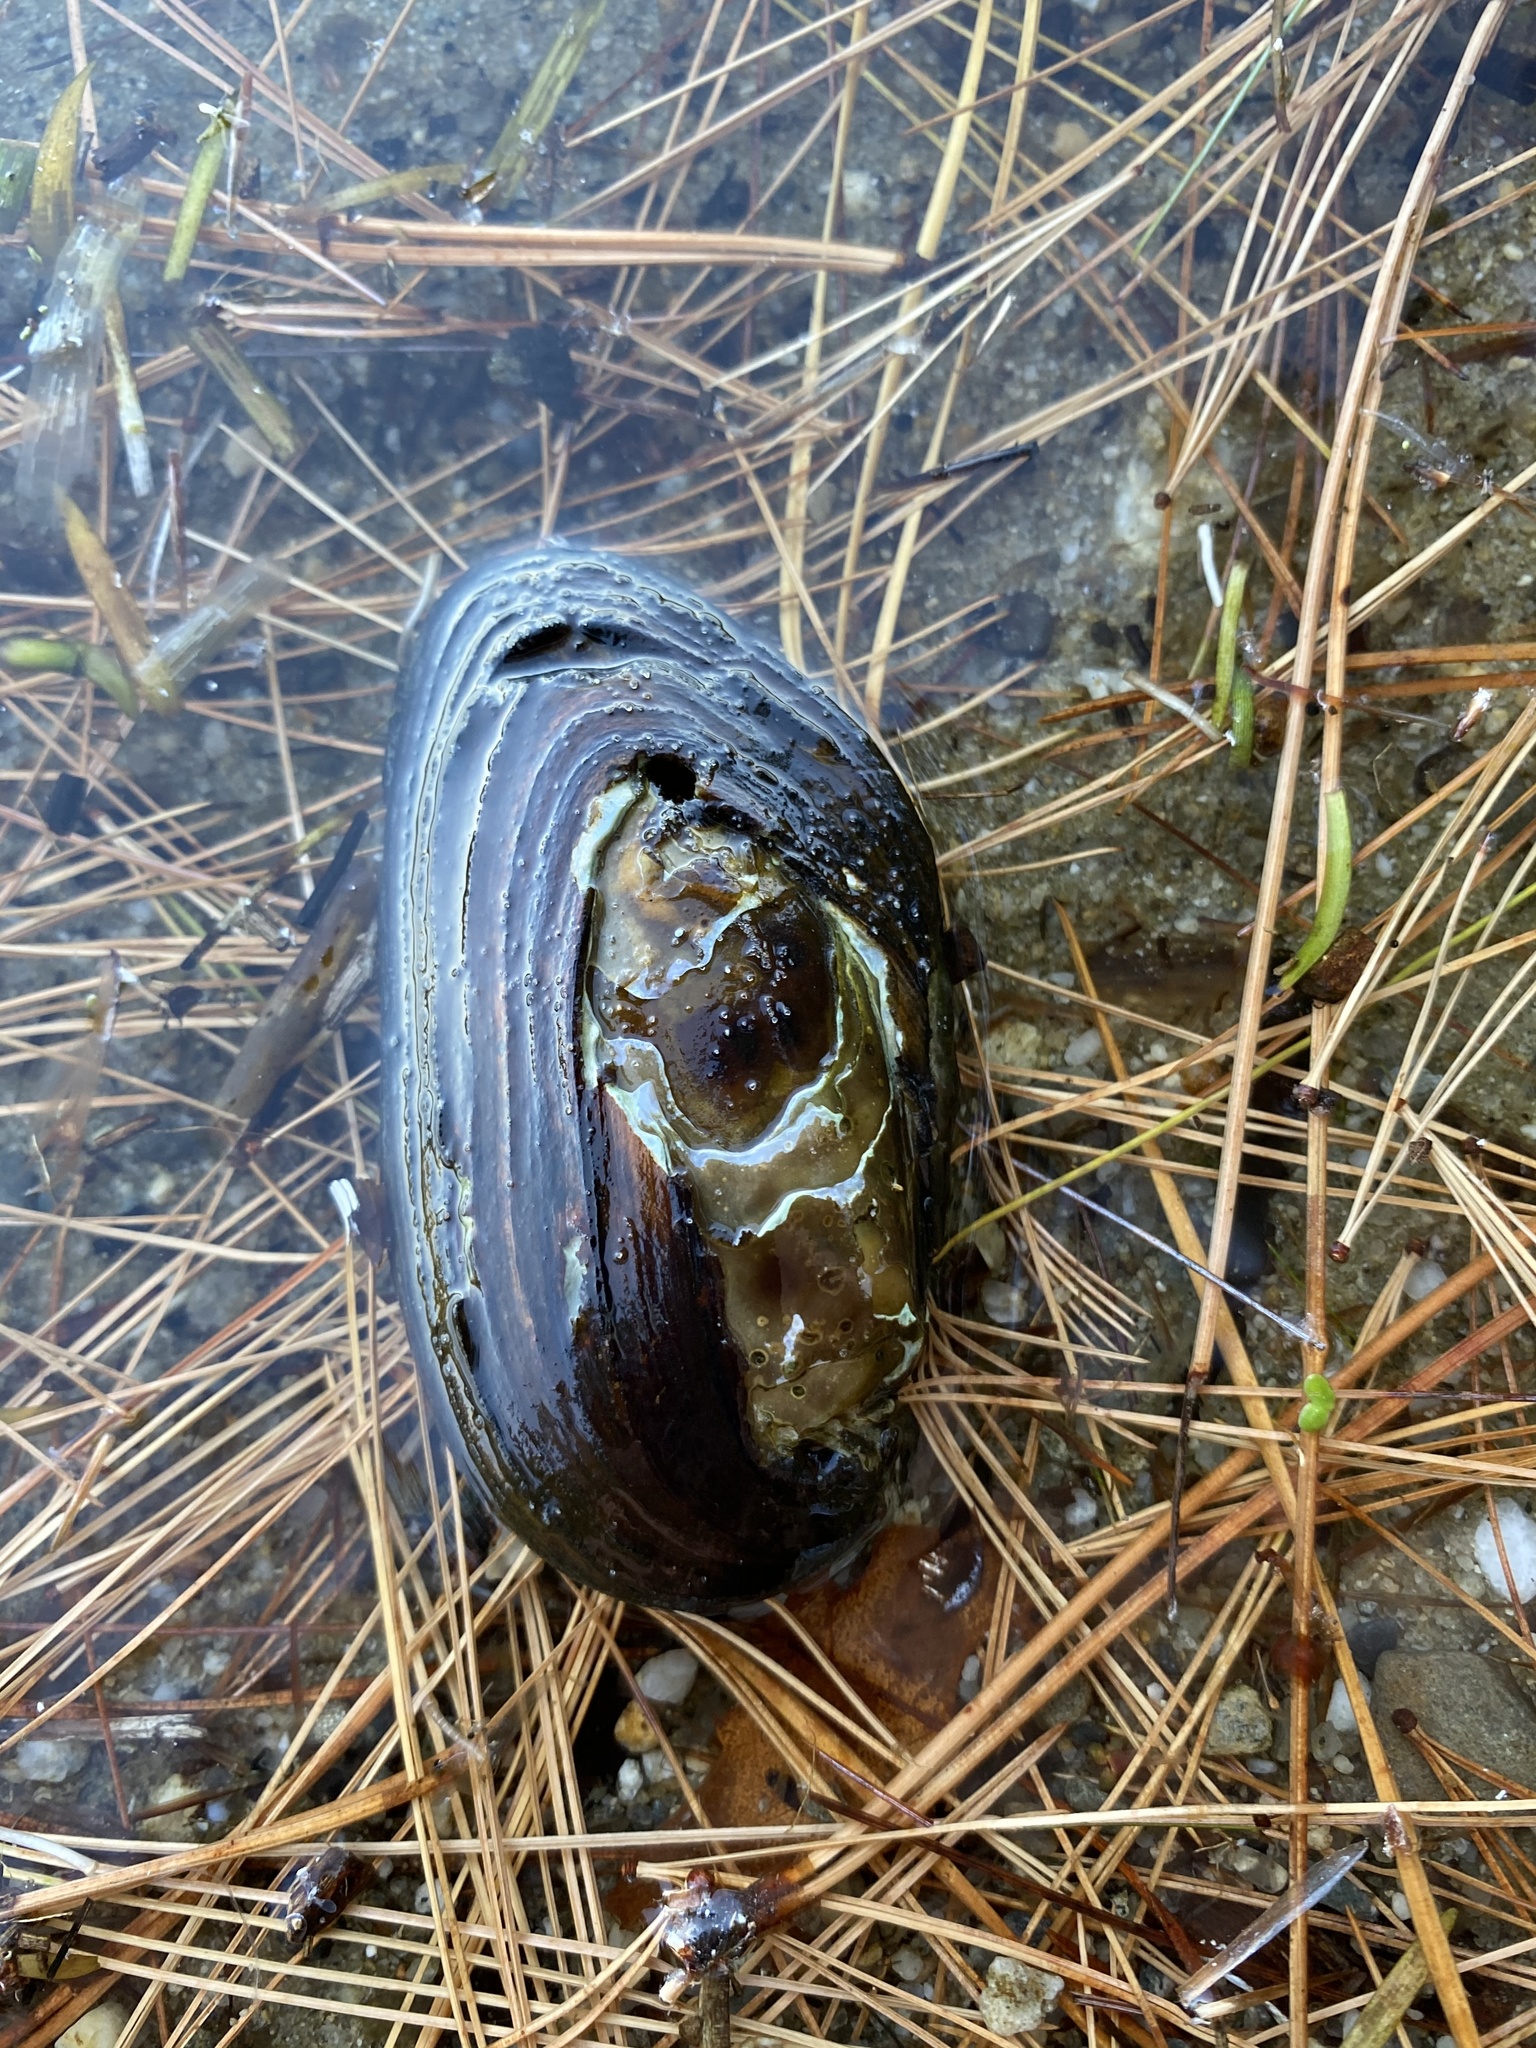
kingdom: Animalia
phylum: Mollusca
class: Bivalvia
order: Unionida
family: Unionidae
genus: Elliptio
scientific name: Elliptio complanata
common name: Eastern elliptio
